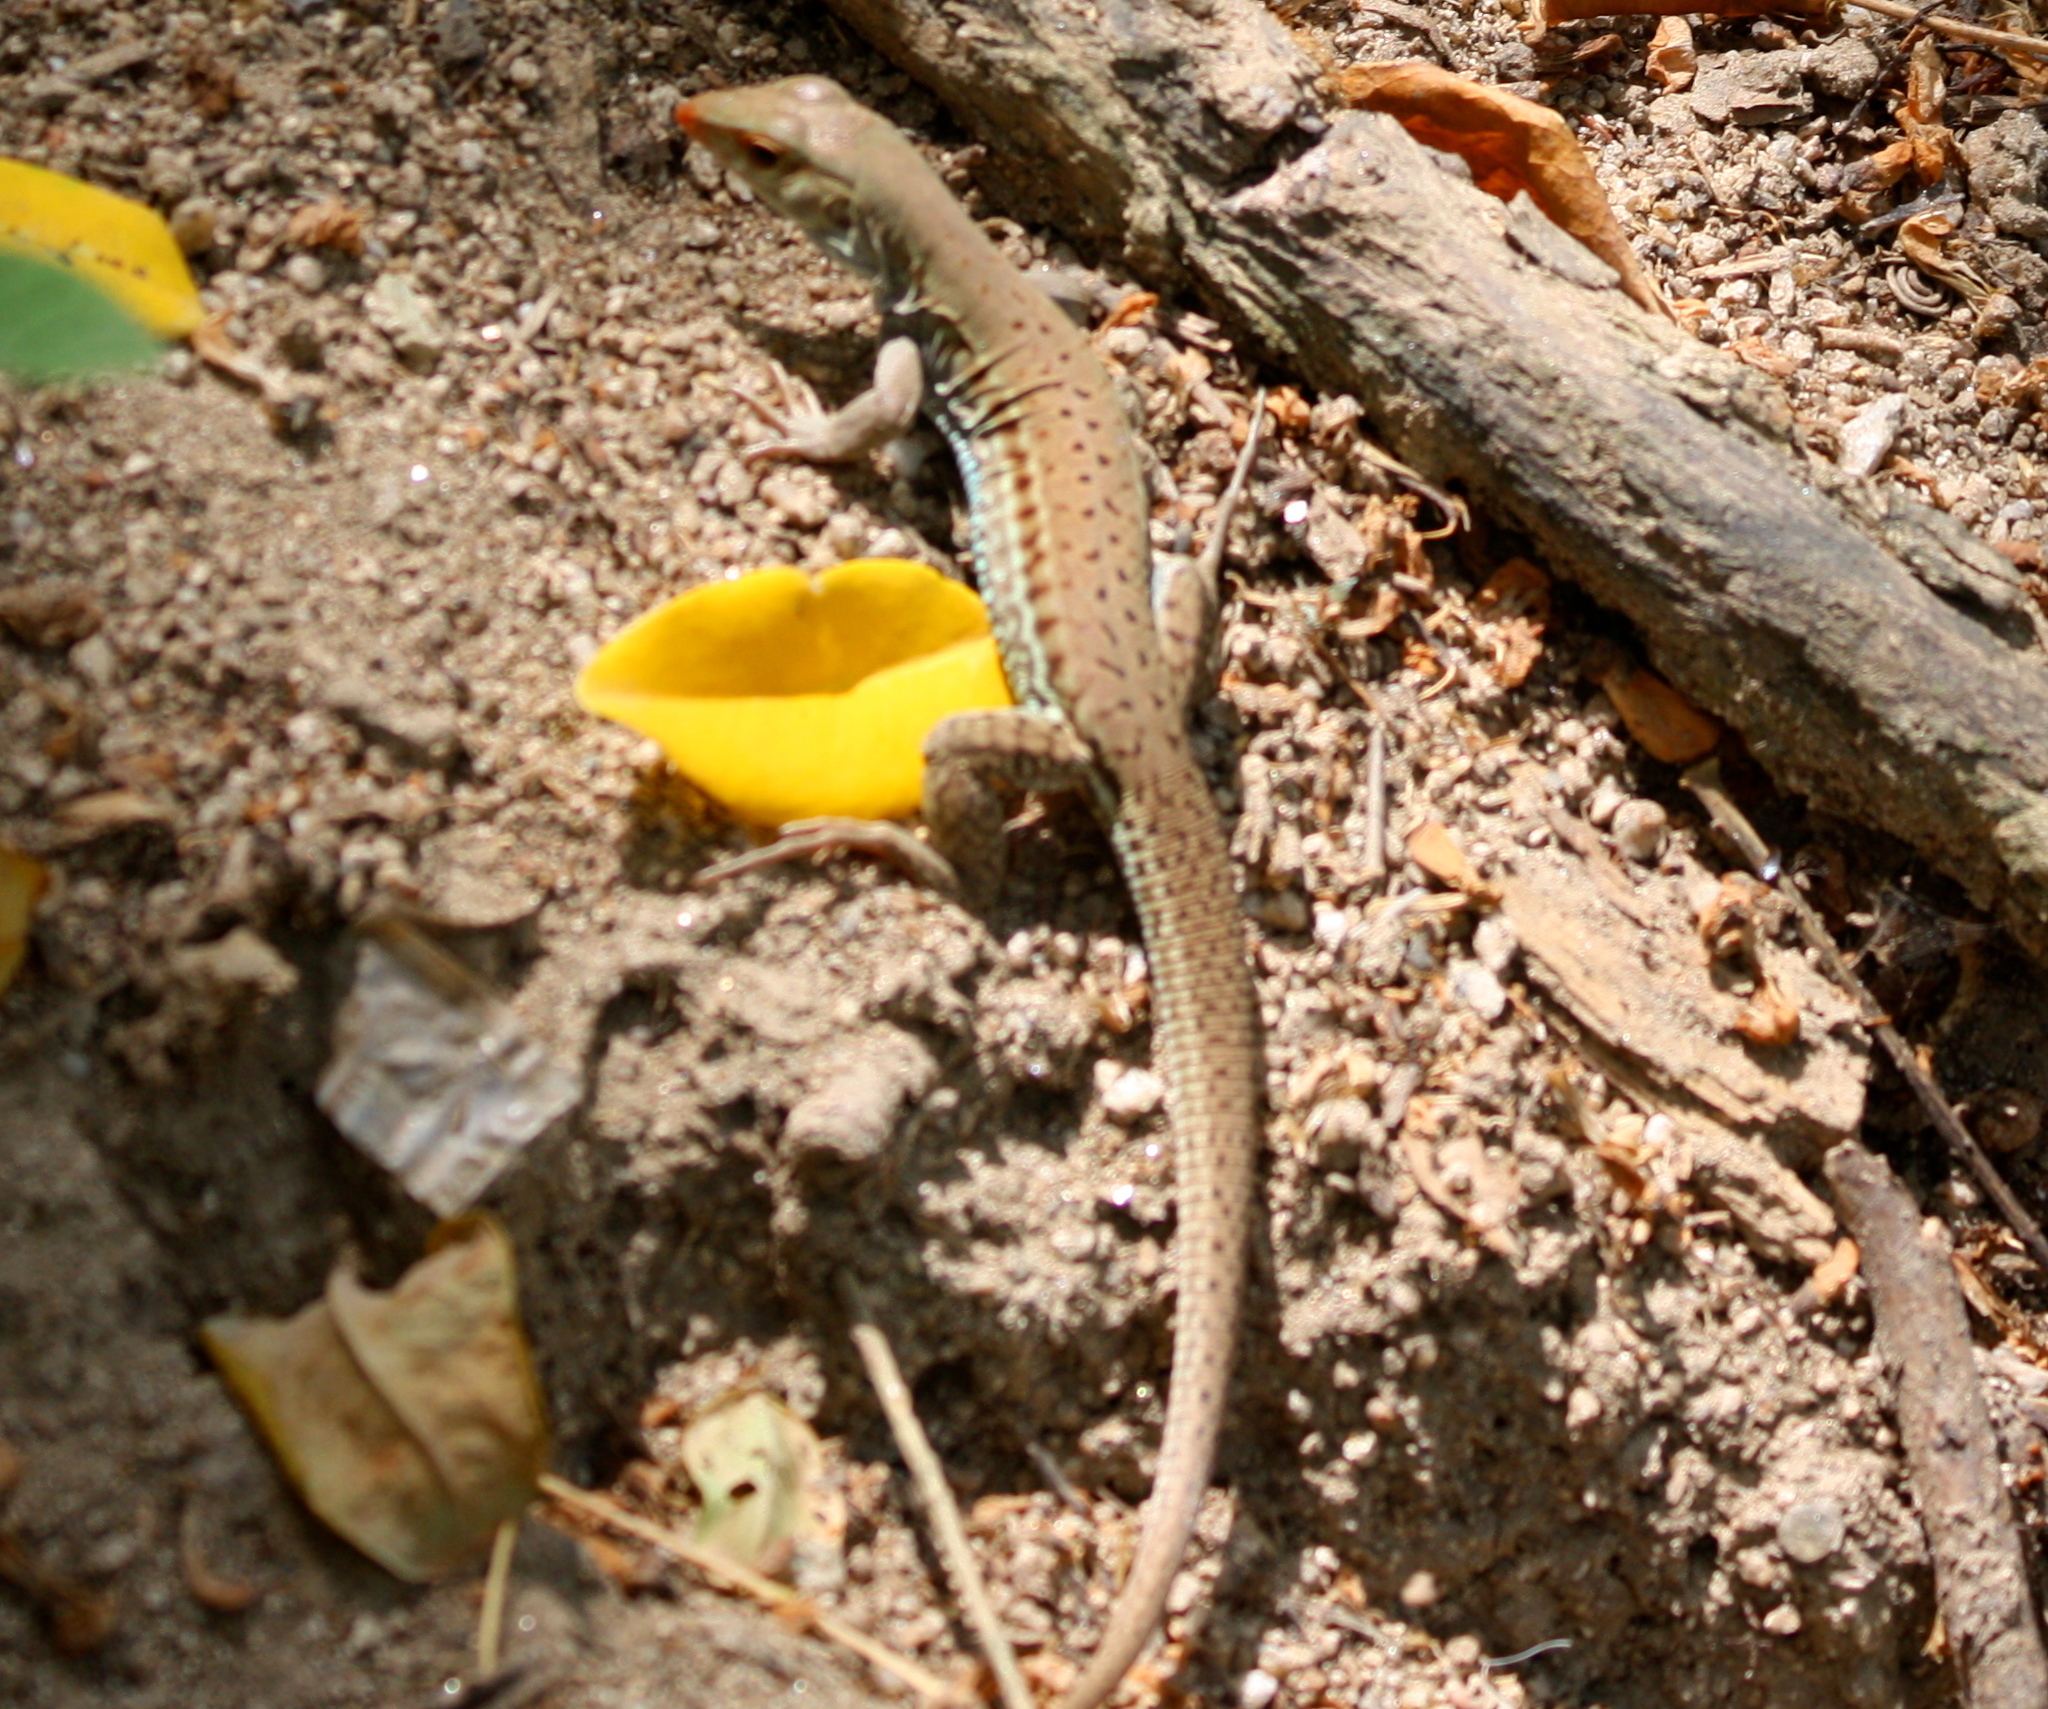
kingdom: Animalia
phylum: Chordata
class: Squamata
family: Teiidae
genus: Ameiva
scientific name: Ameiva bifrontata
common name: Cope's ameiva
